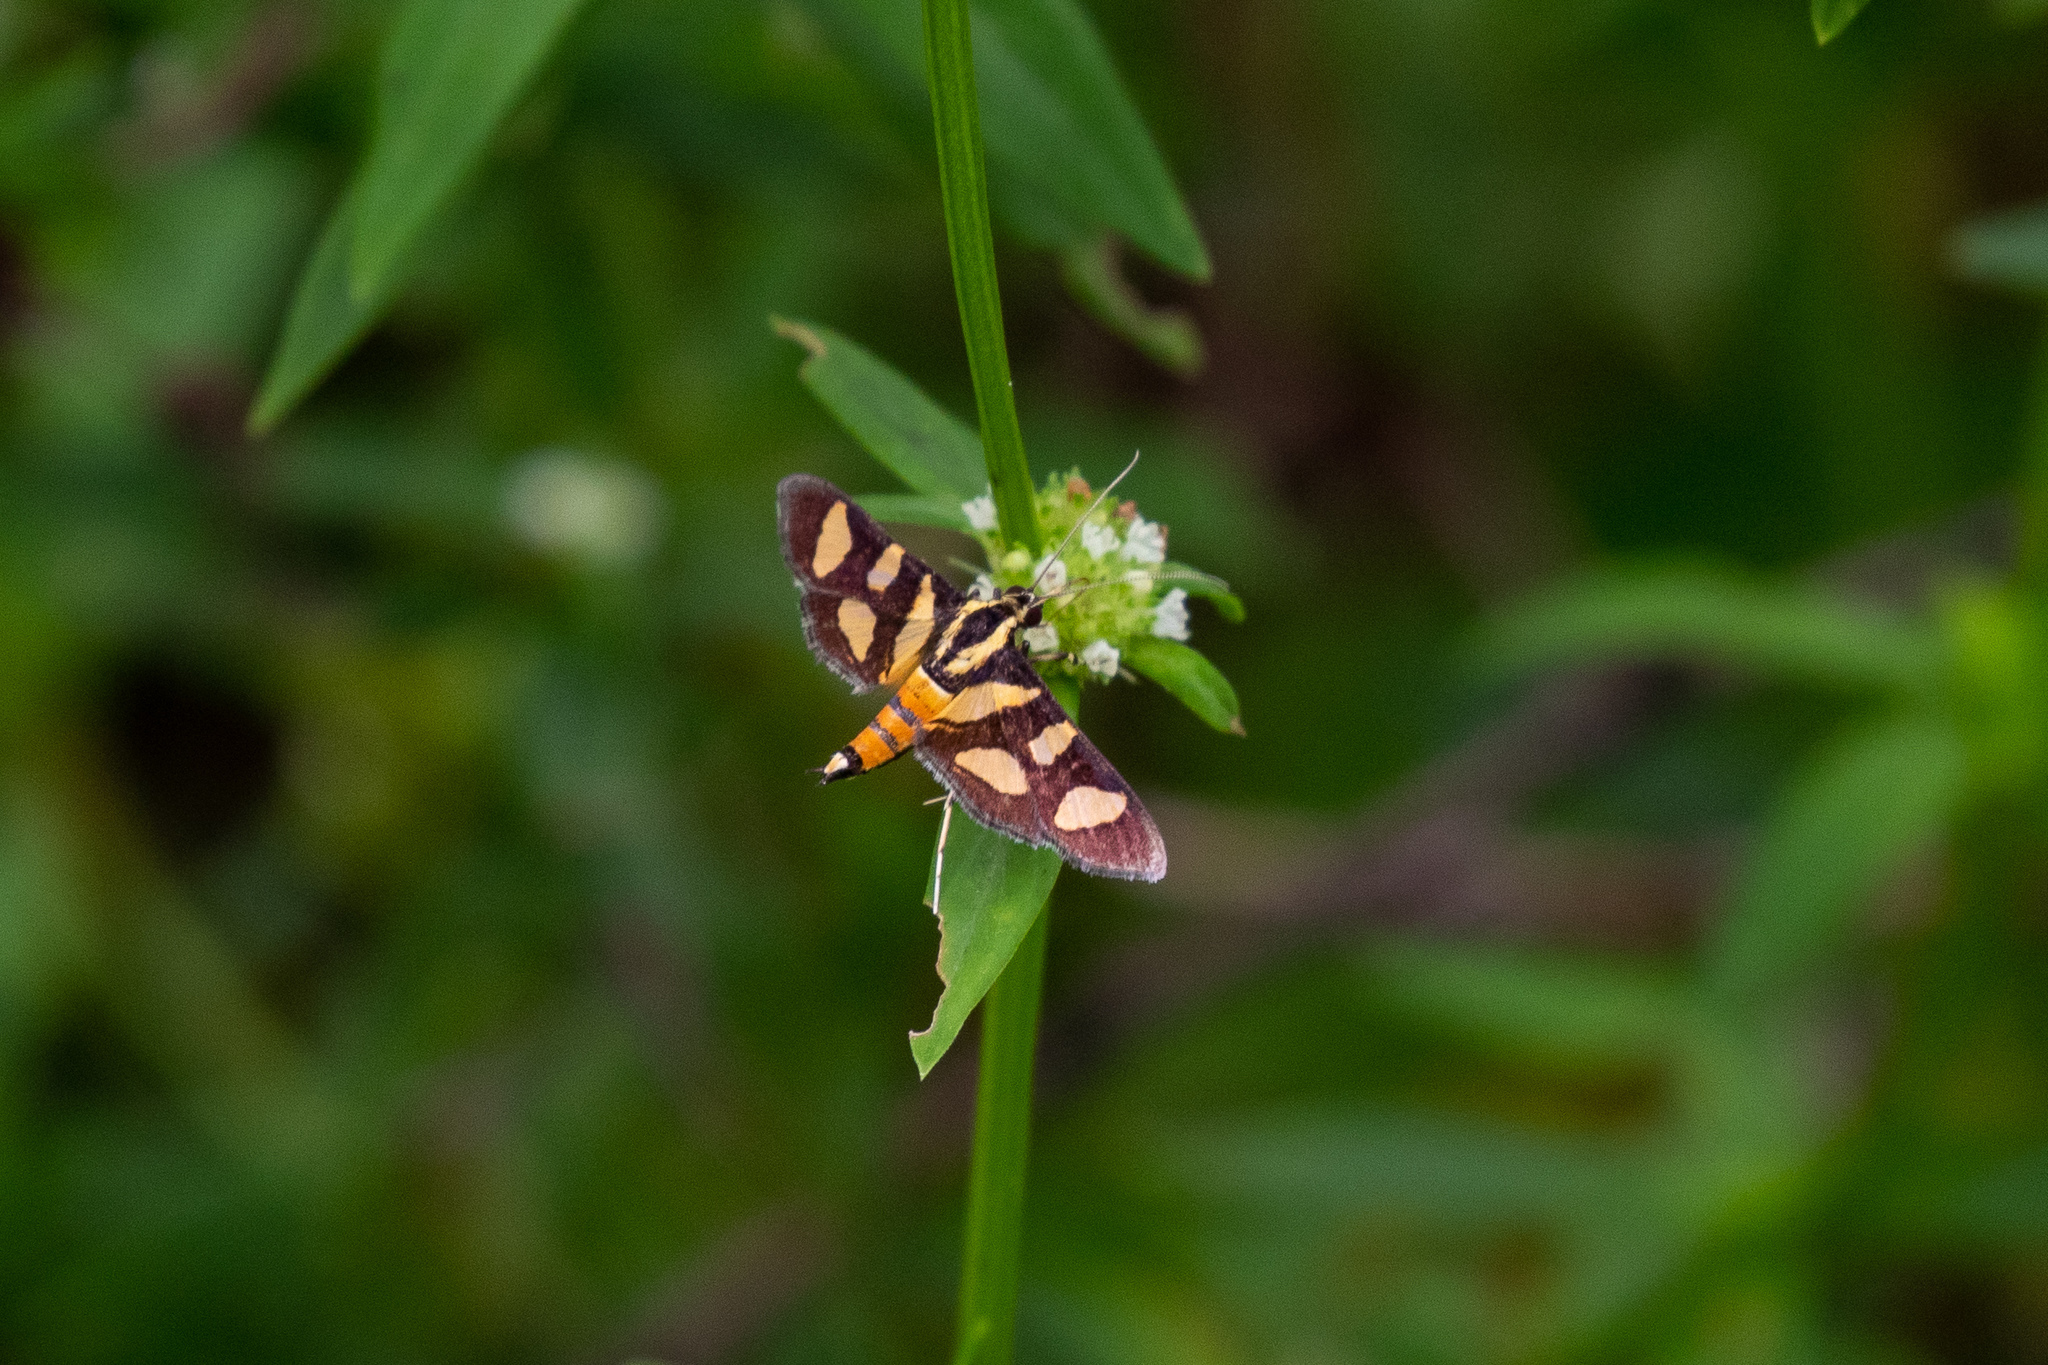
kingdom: Animalia
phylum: Arthropoda
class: Insecta
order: Lepidoptera
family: Crambidae
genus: Syngamia
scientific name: Syngamia florella
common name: Orange-spotted flower moth
